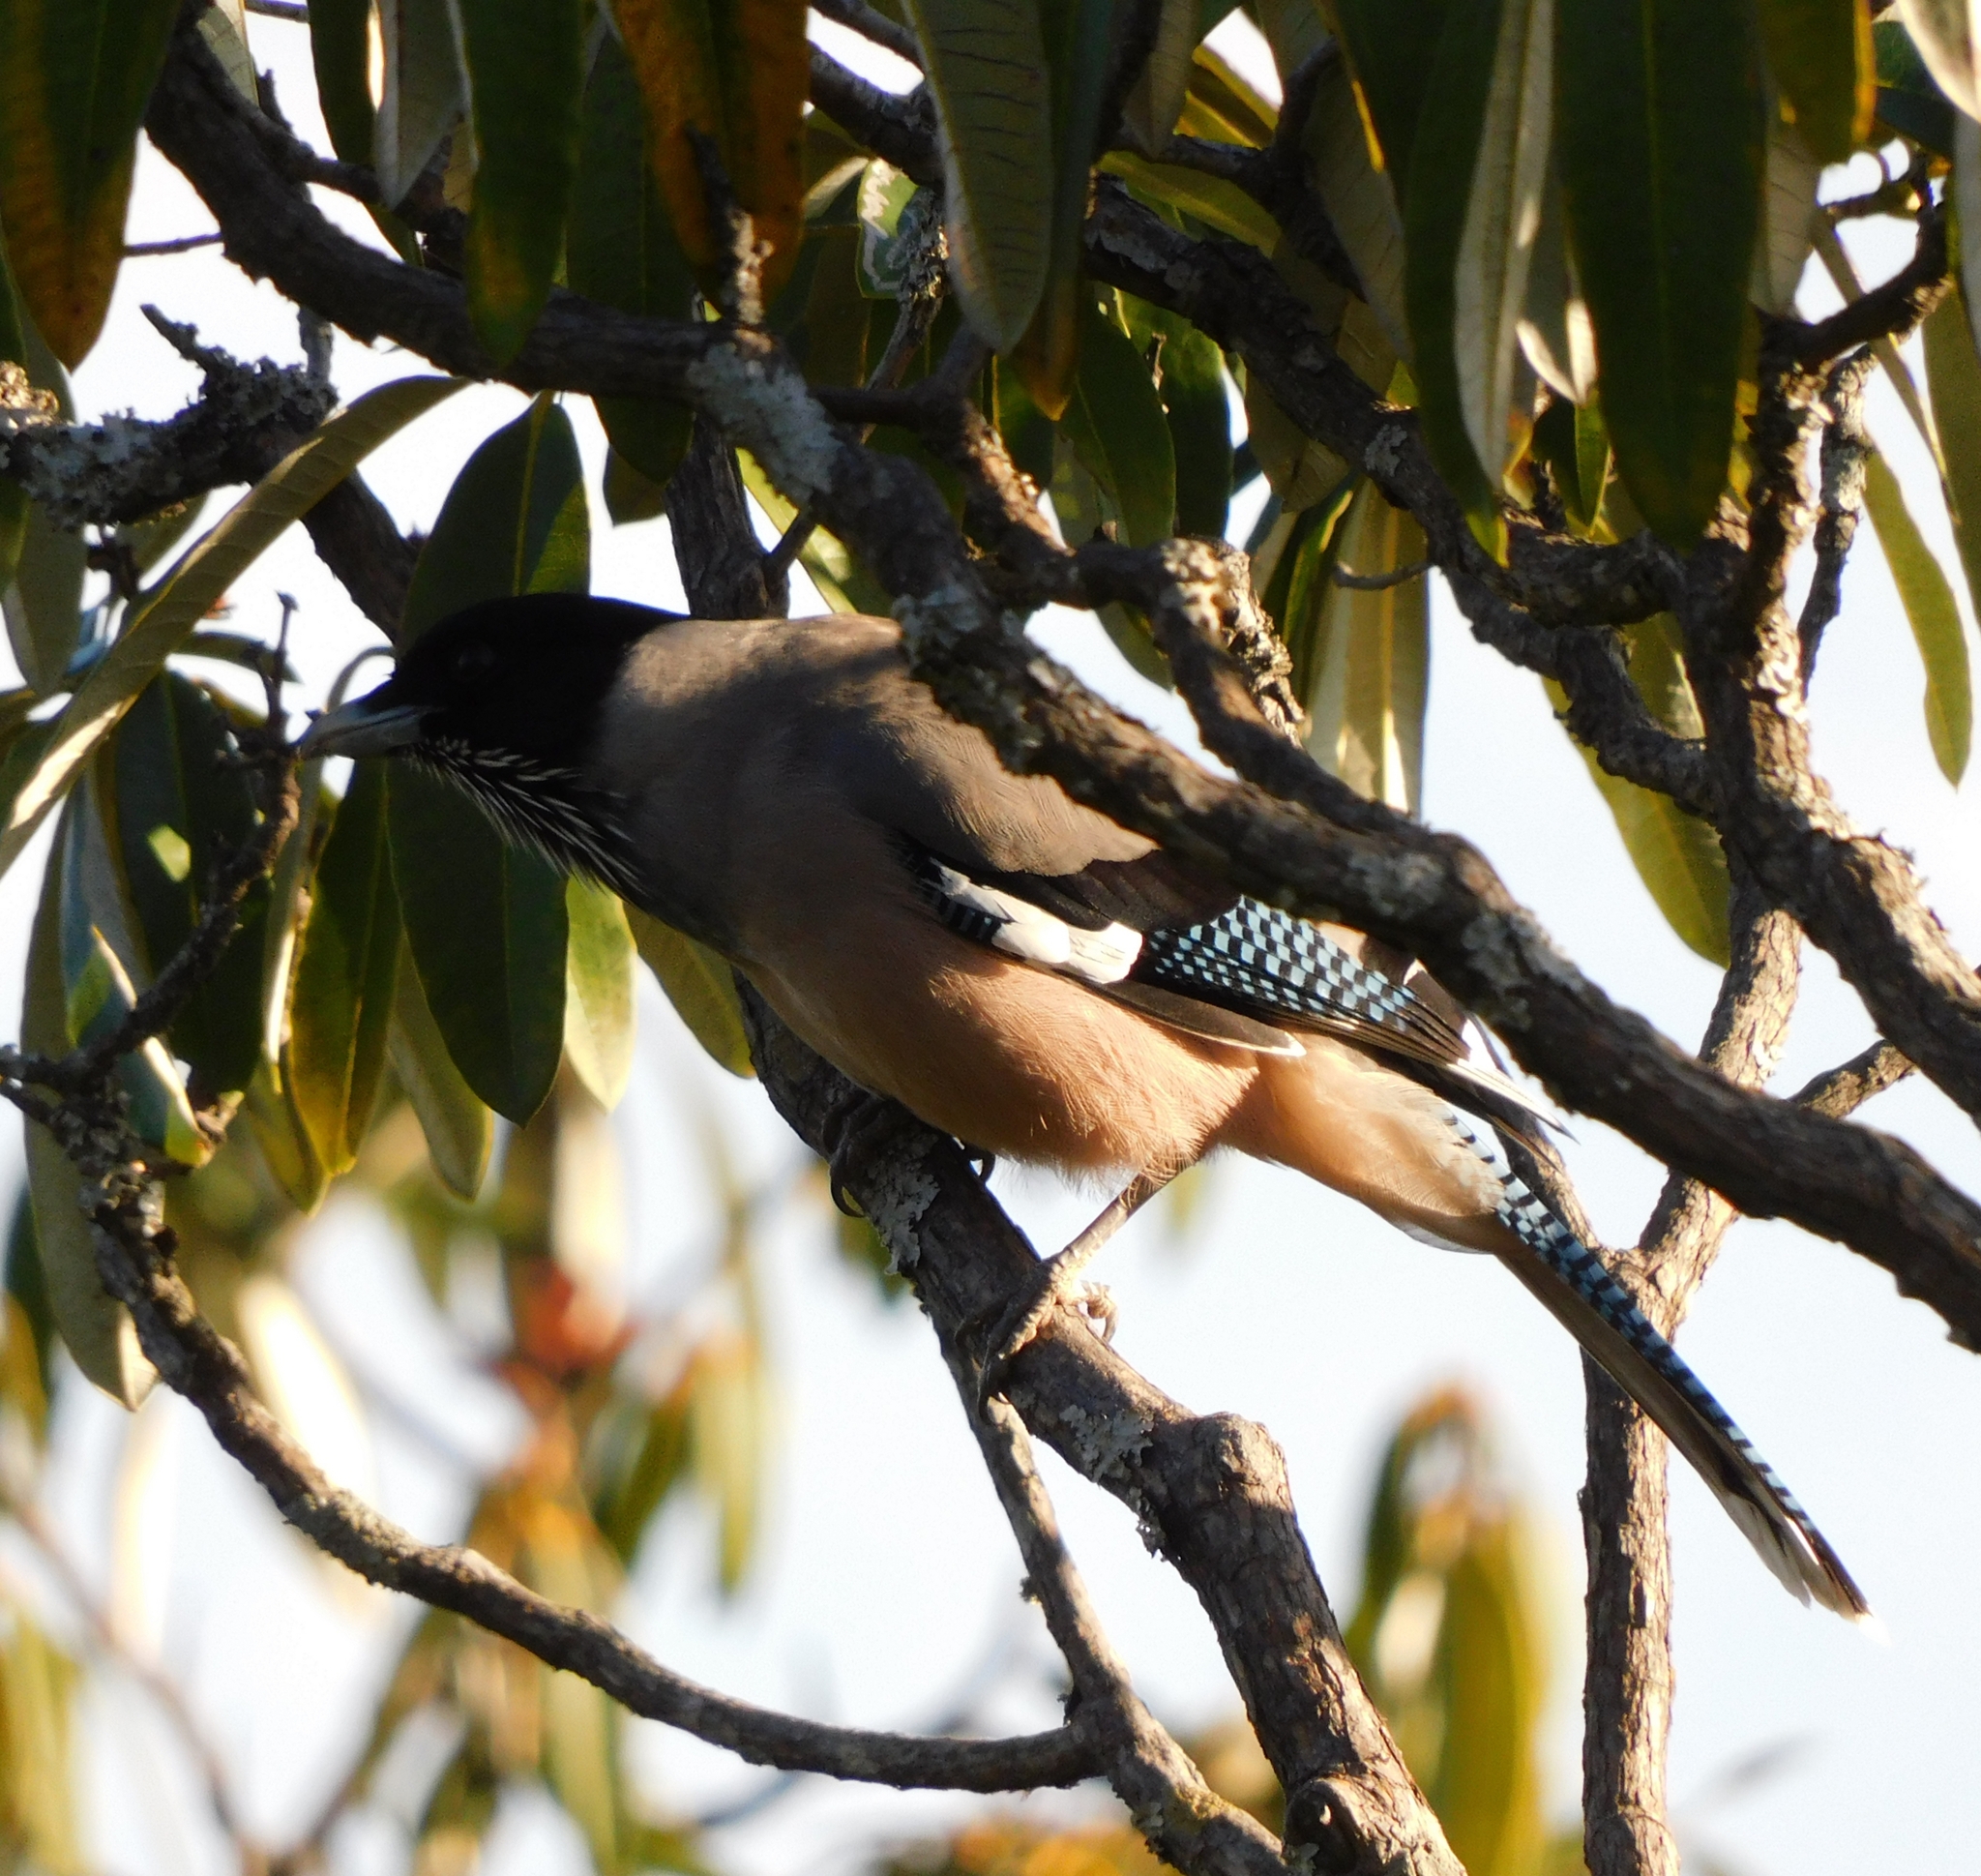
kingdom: Animalia
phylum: Chordata
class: Aves
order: Passeriformes
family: Corvidae
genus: Garrulus
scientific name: Garrulus lanceolatus
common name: Black-headed jay
